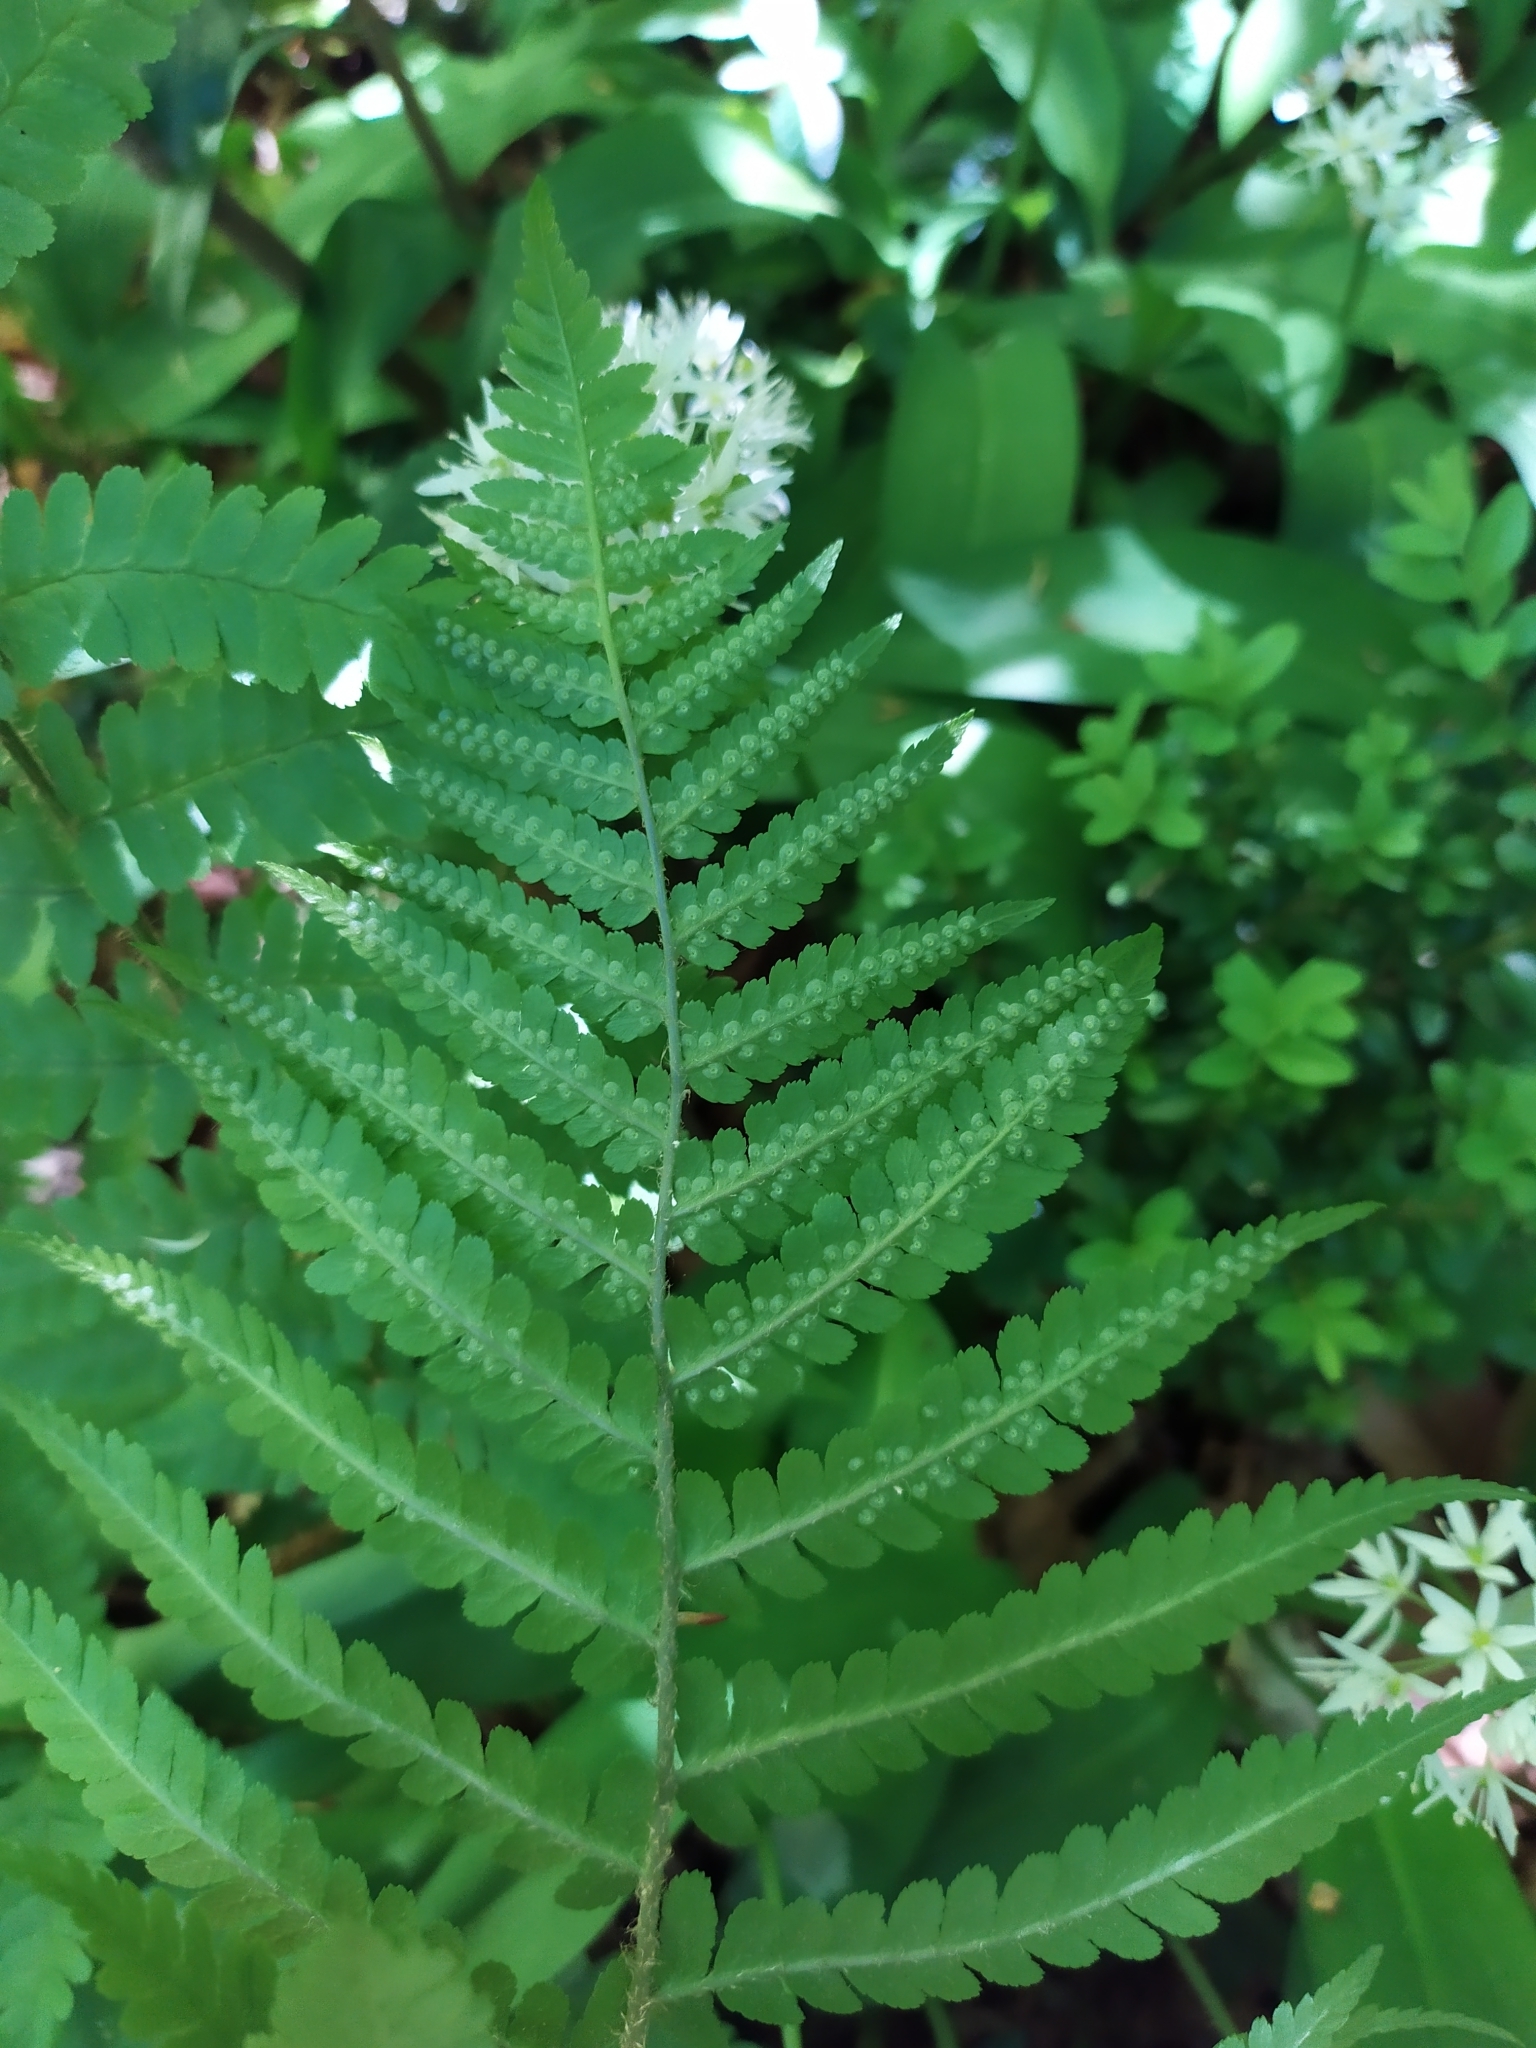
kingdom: Plantae
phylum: Tracheophyta
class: Polypodiopsida
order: Polypodiales
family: Dryopteridaceae
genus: Dryopteris
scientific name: Dryopteris filix-mas
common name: Male fern
